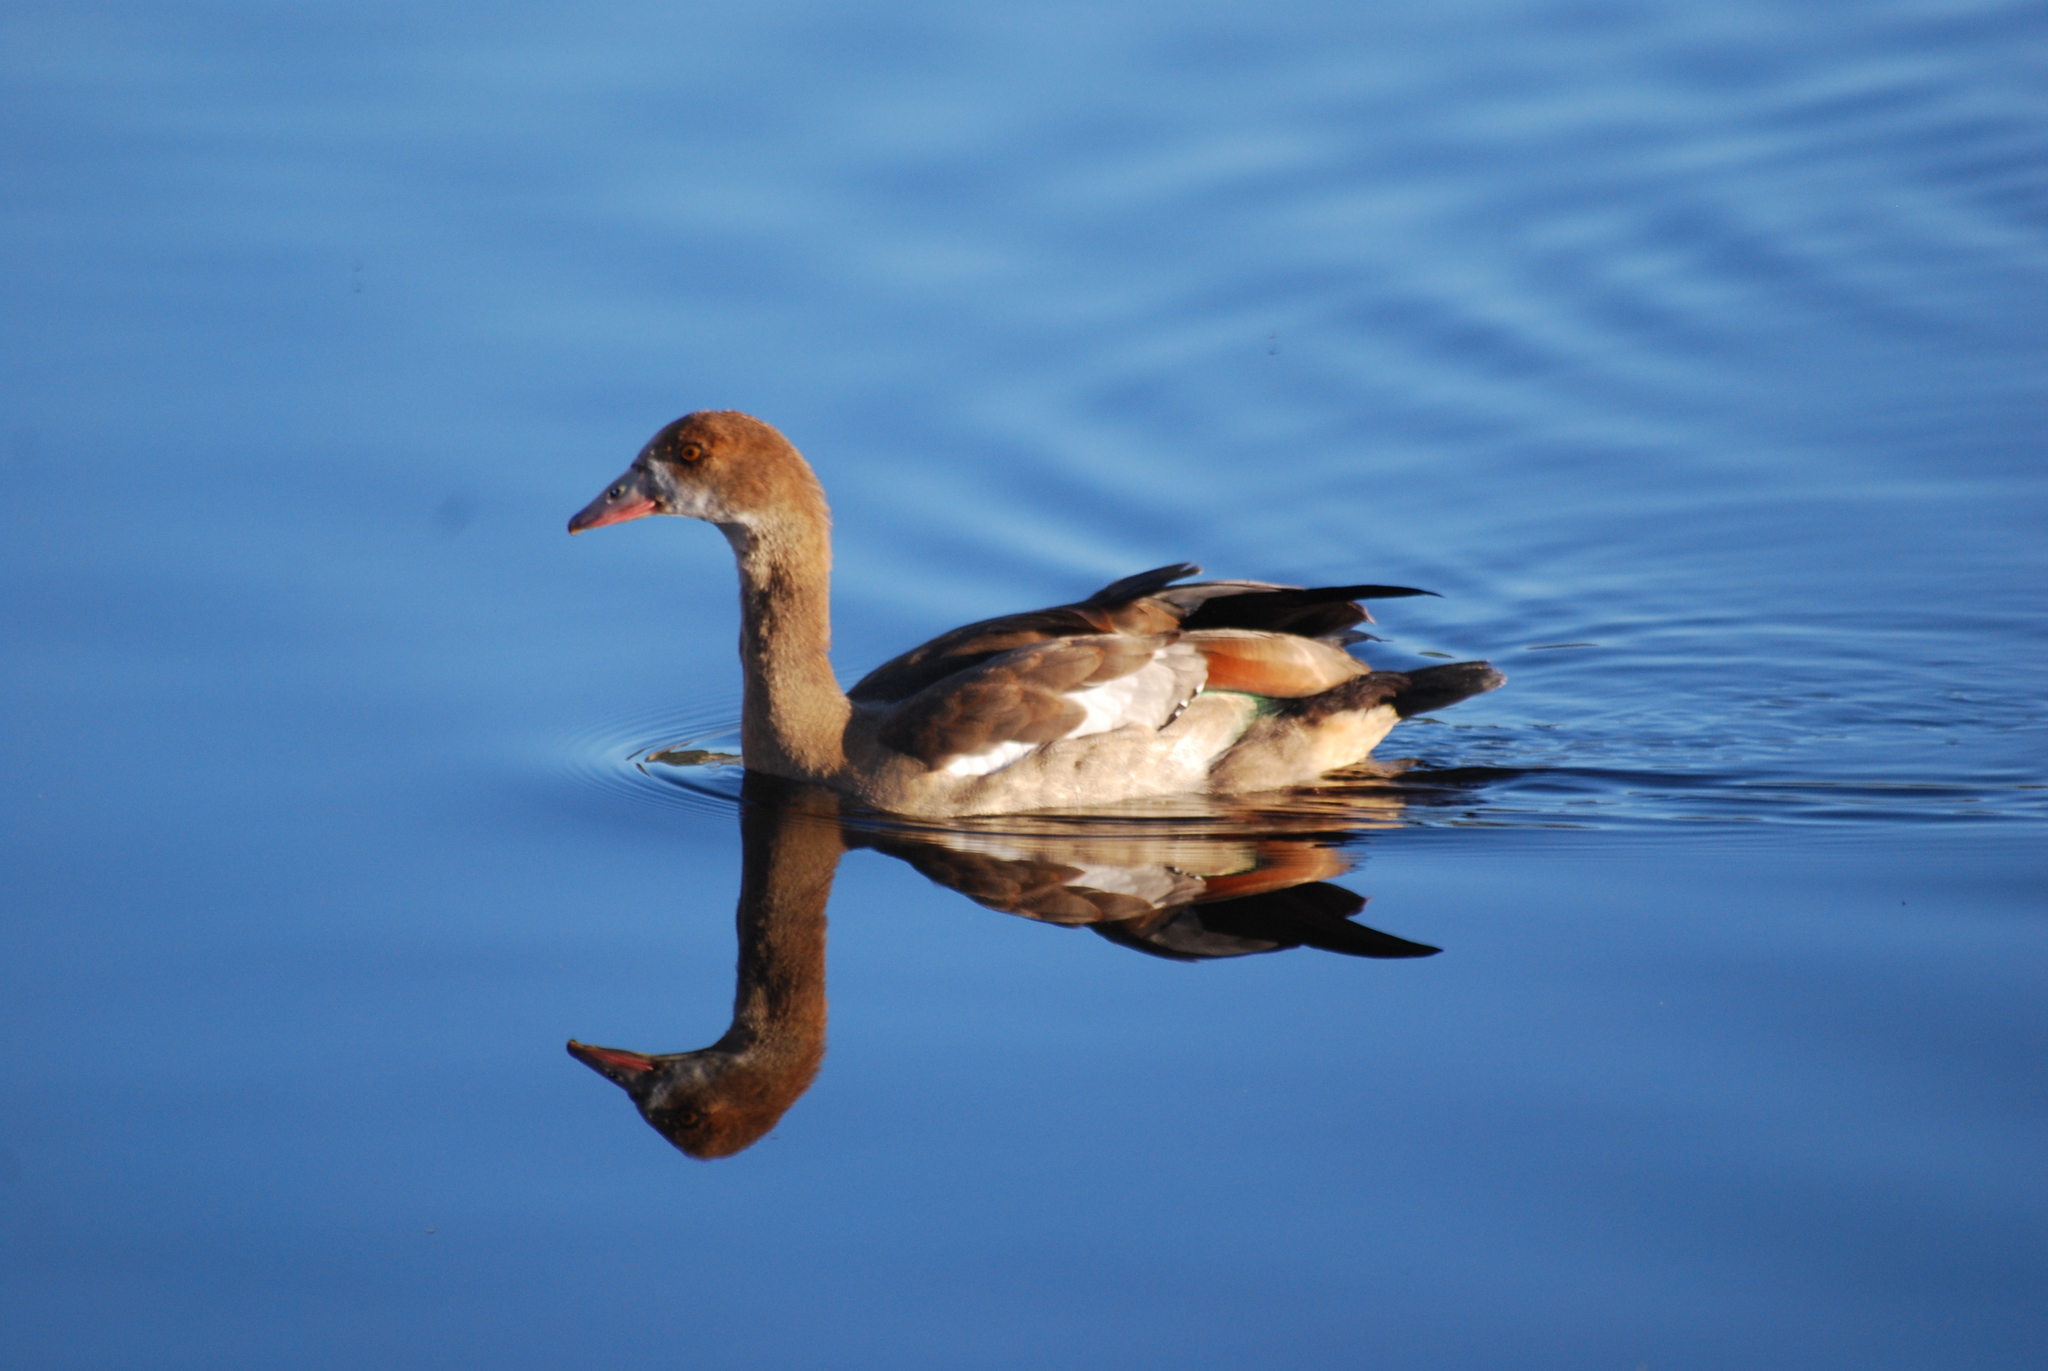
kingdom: Animalia
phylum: Chordata
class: Aves
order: Anseriformes
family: Anatidae
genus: Alopochen
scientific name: Alopochen aegyptiaca
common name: Egyptian goose
